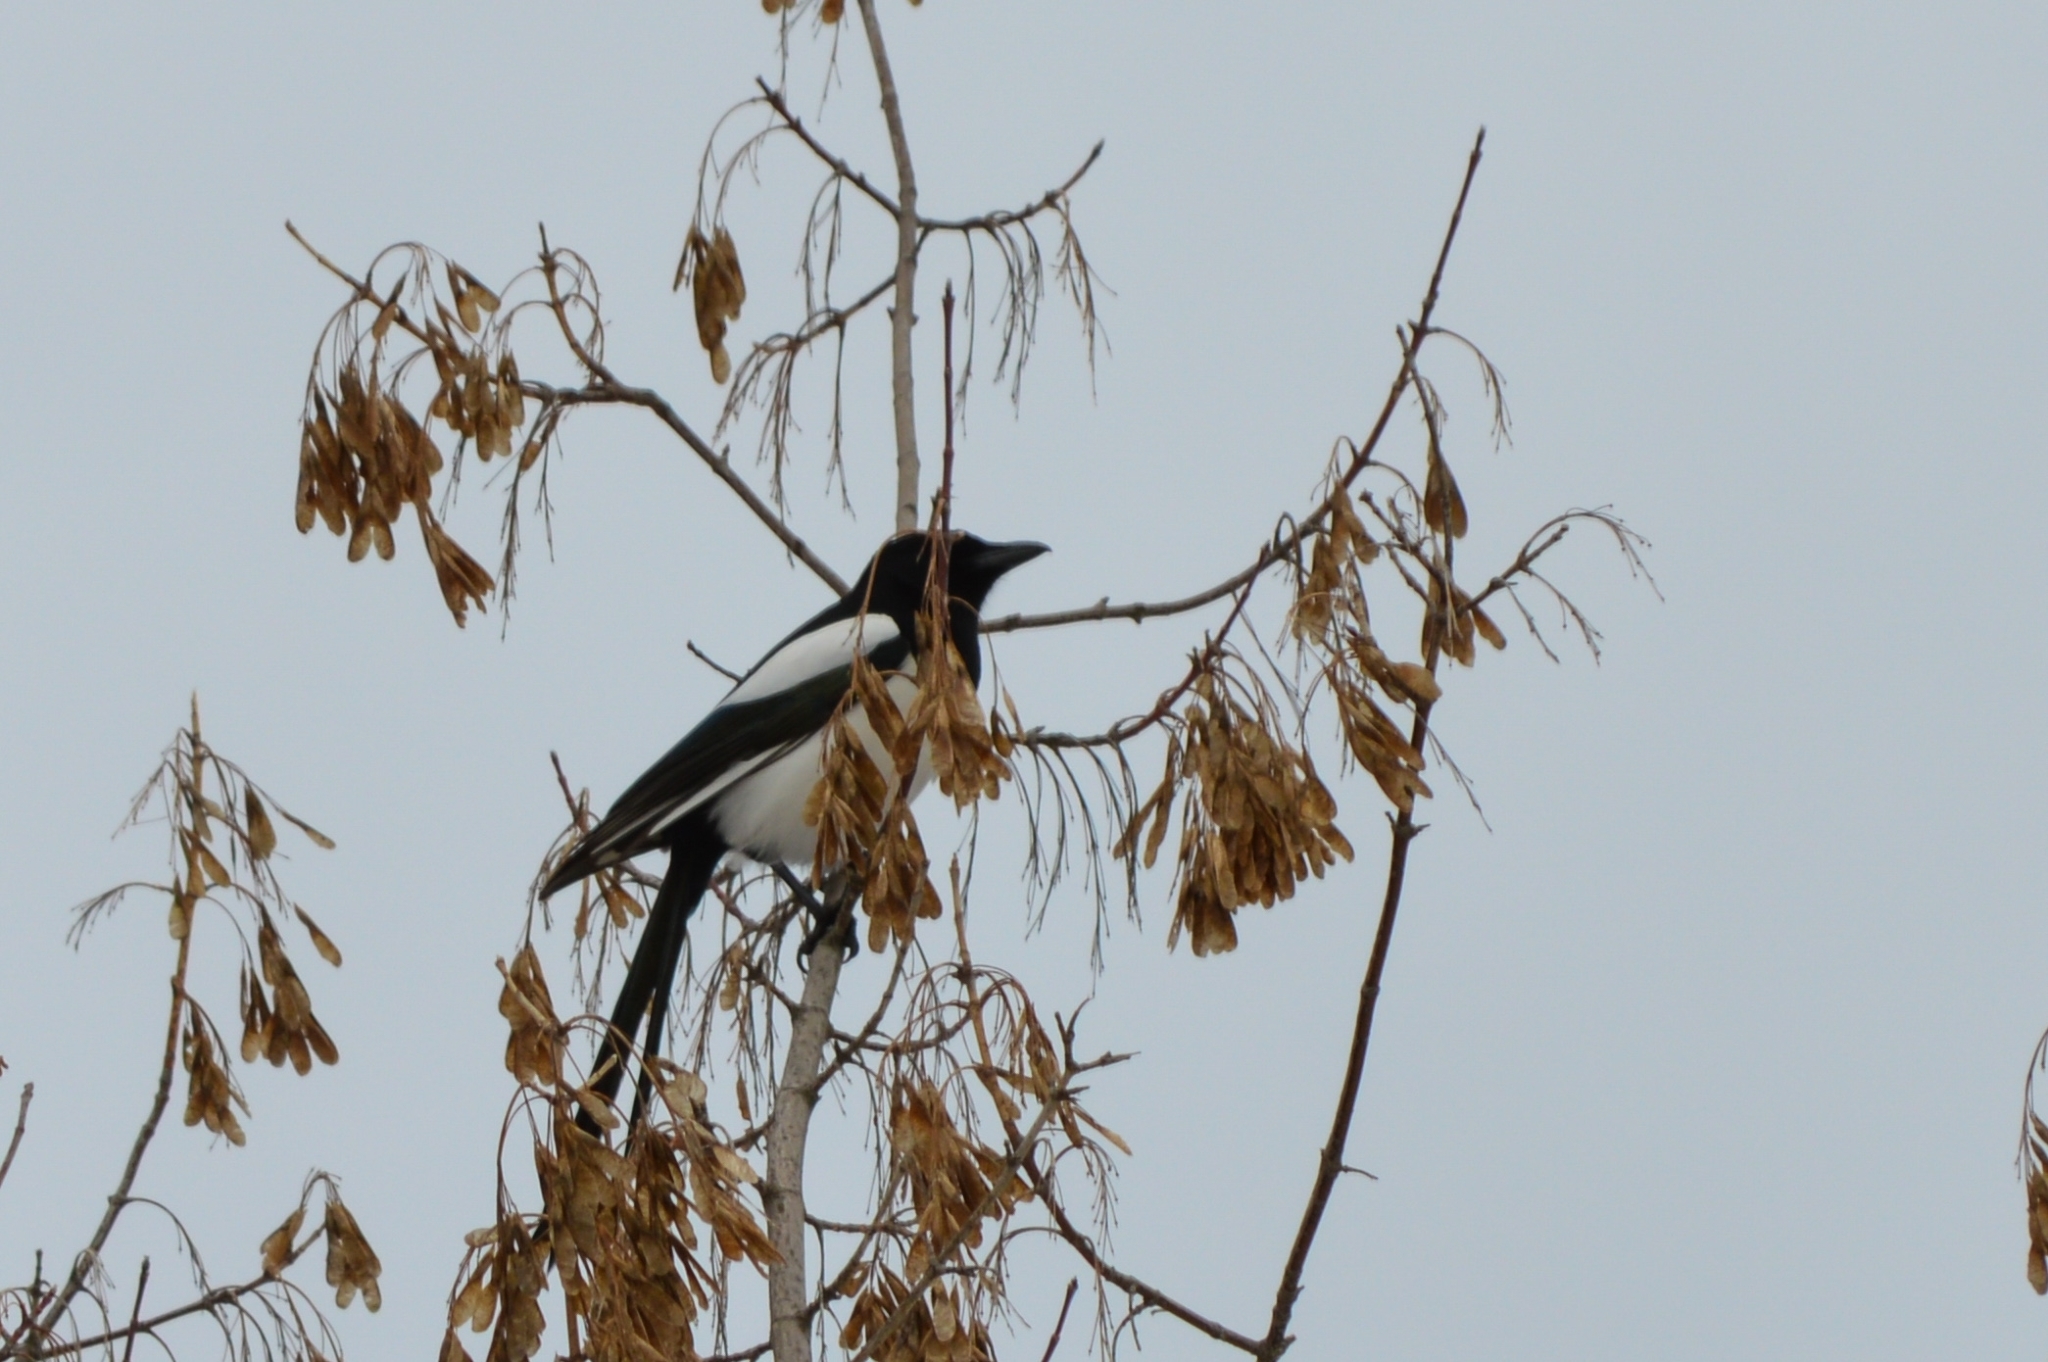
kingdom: Animalia
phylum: Chordata
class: Aves
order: Passeriformes
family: Corvidae
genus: Pica
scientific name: Pica pica
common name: Eurasian magpie
